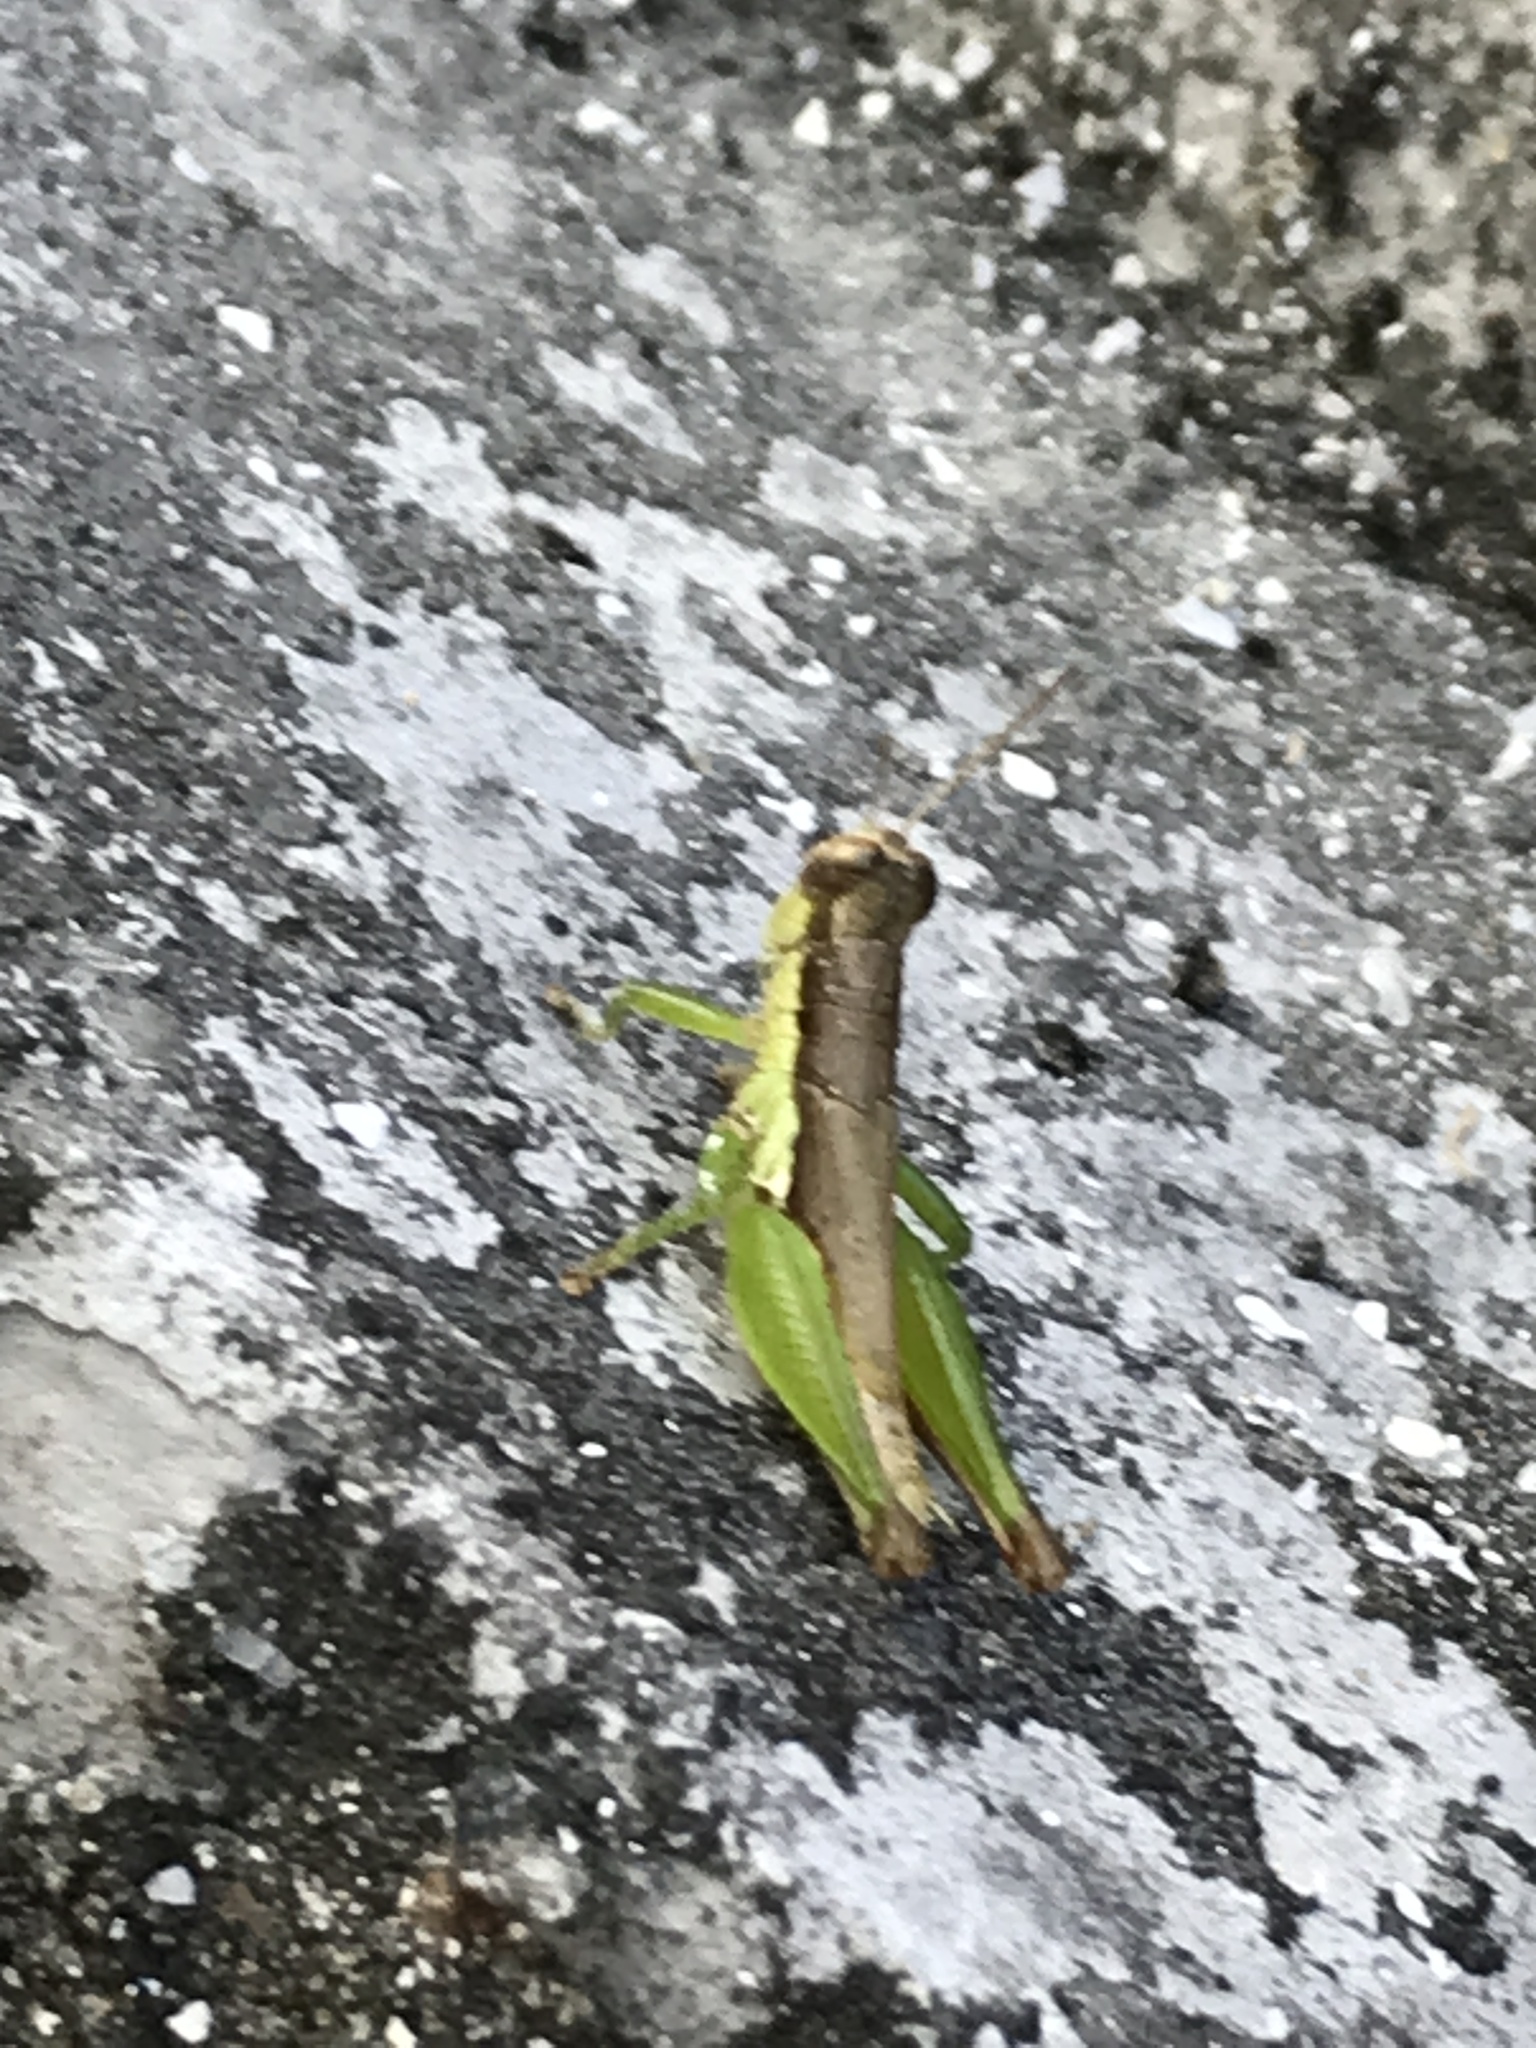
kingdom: Animalia
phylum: Arthropoda
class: Insecta
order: Orthoptera
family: Acrididae
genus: Pseudoxya
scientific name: Pseudoxya diminuta
